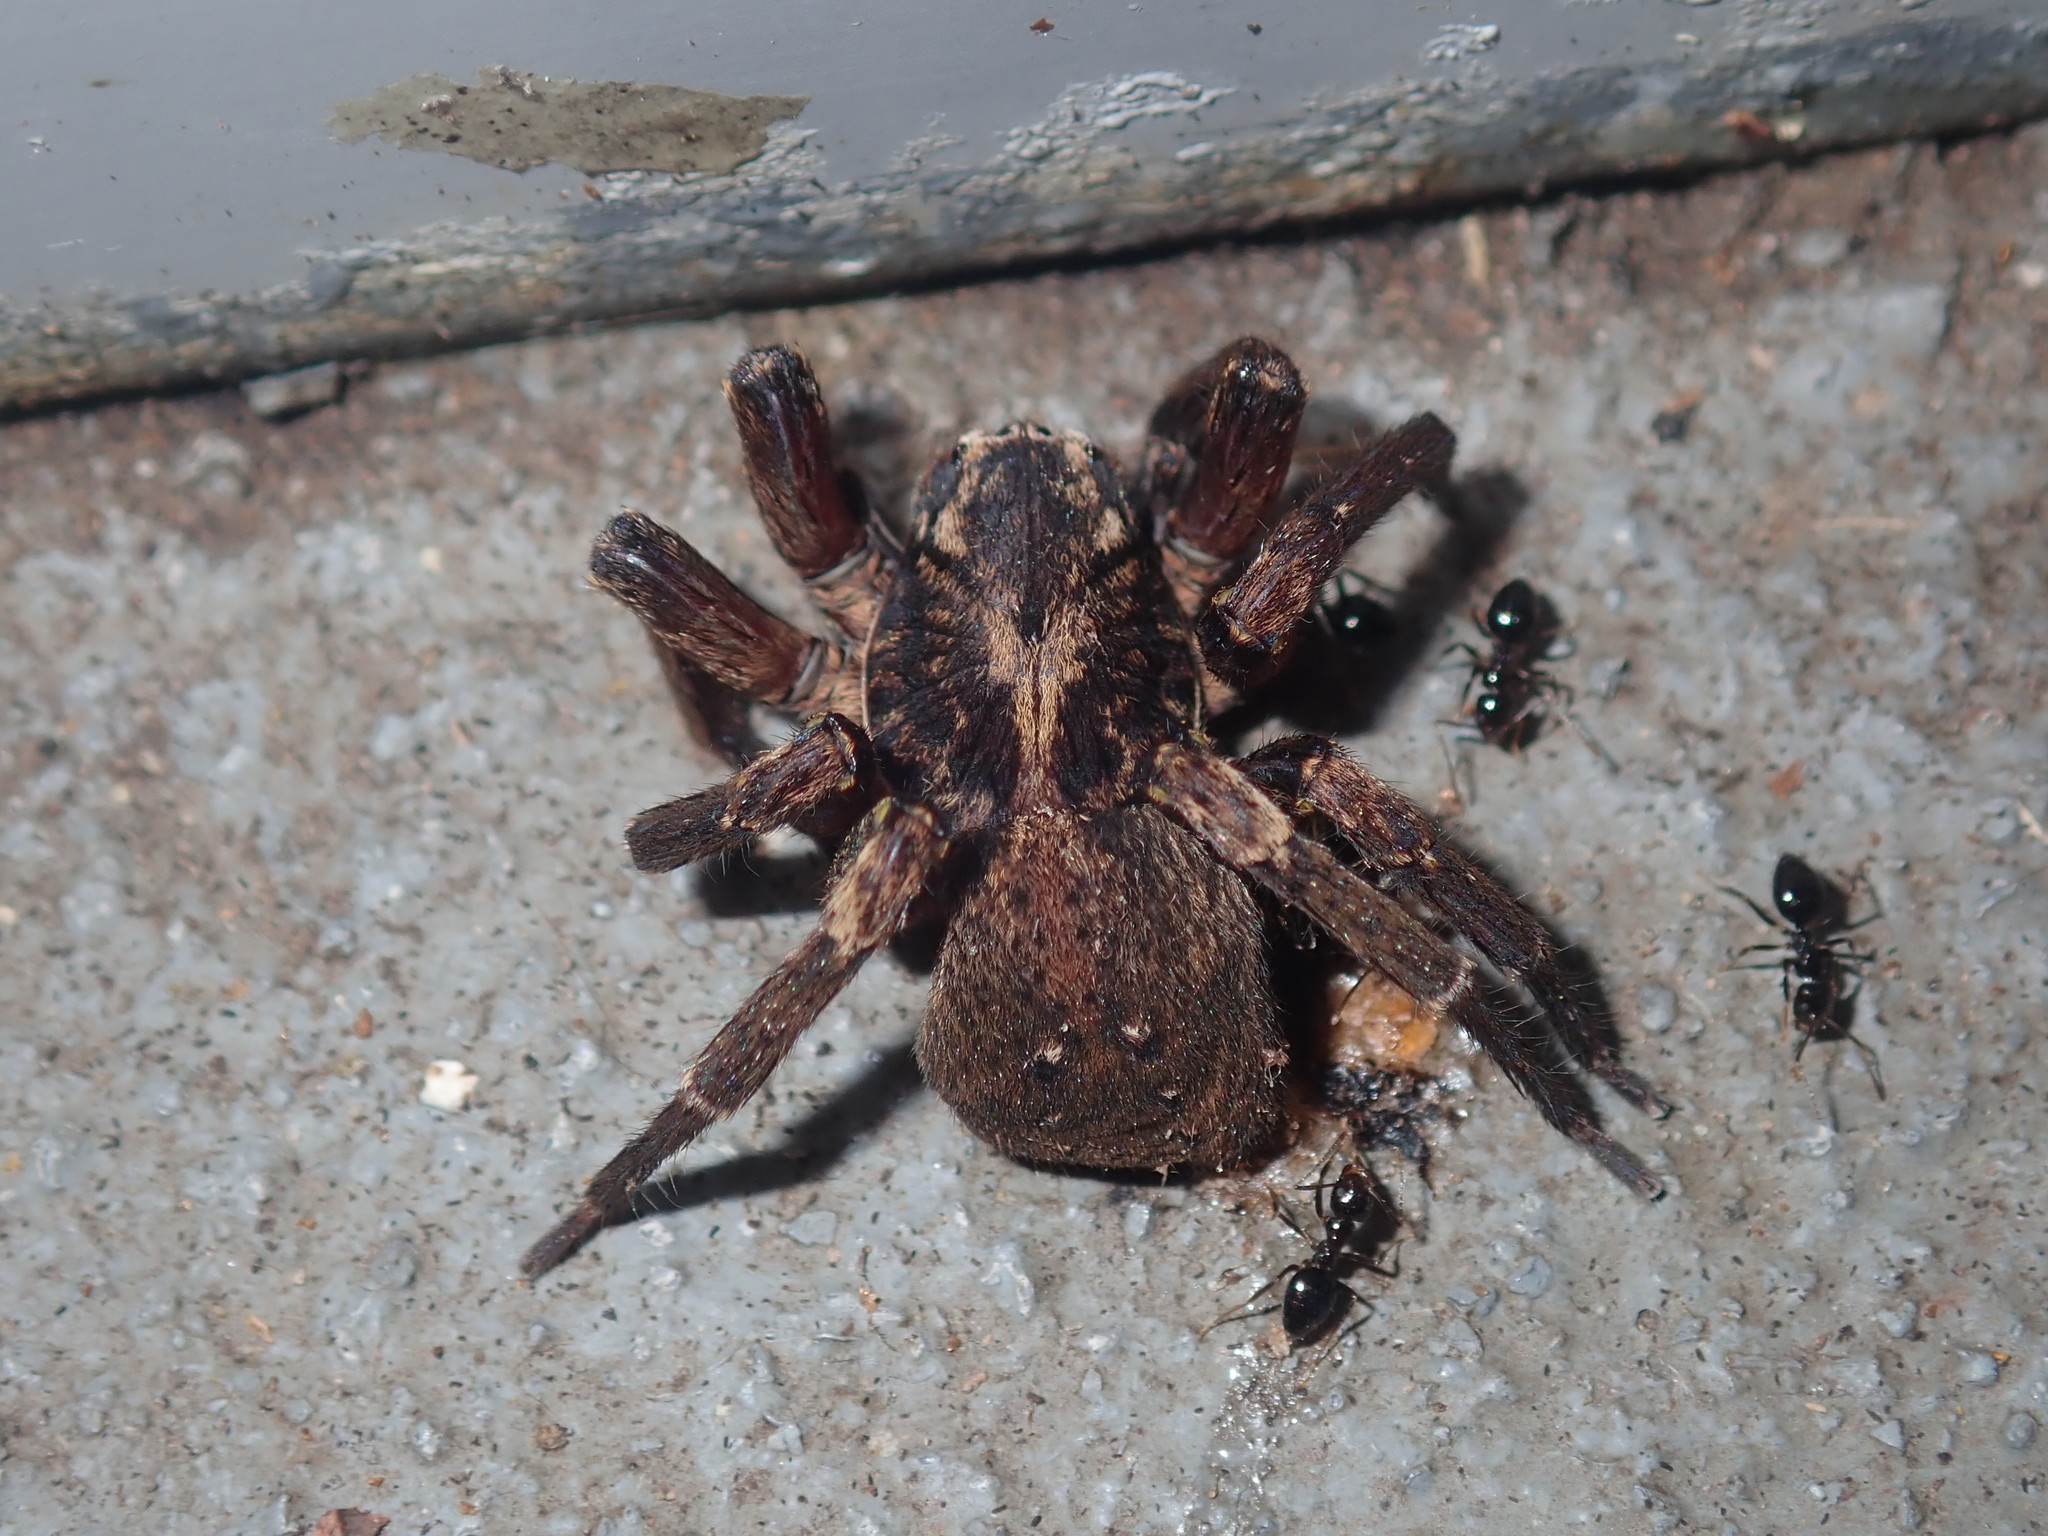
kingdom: Animalia
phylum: Arthropoda
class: Arachnida
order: Araneae
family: Miturgidae
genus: Mituliodon
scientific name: Mituliodon tarantulinus
